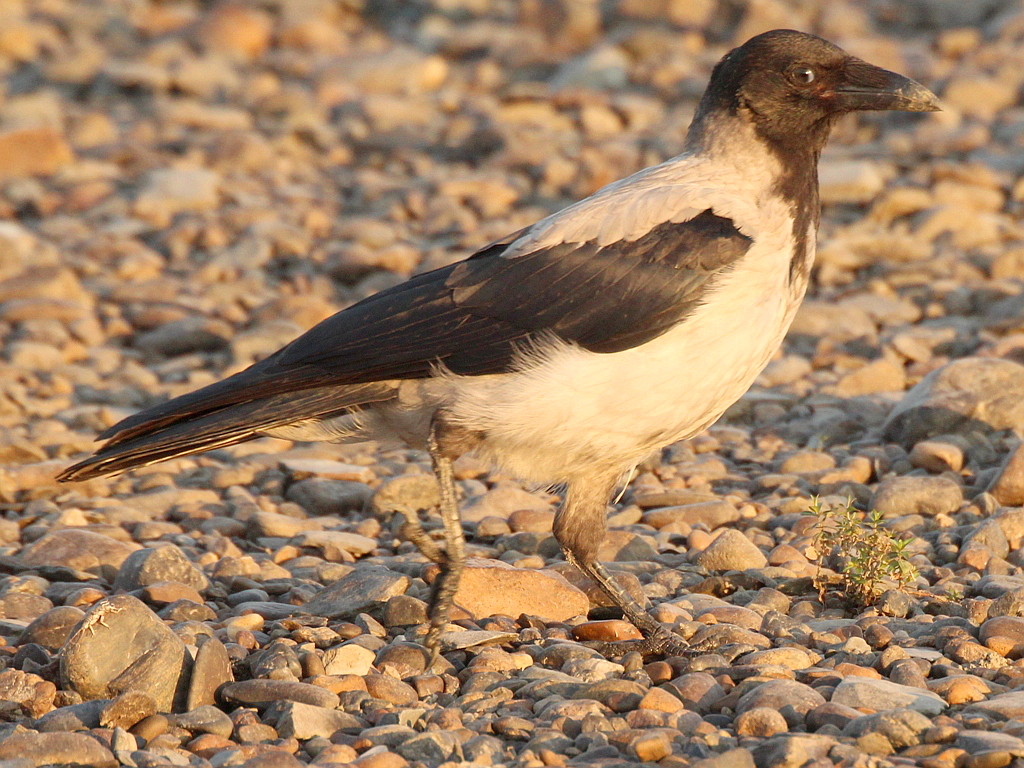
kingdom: Animalia
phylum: Chordata
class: Aves
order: Passeriformes
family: Corvidae
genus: Corvus
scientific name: Corvus cornix
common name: Hooded crow
